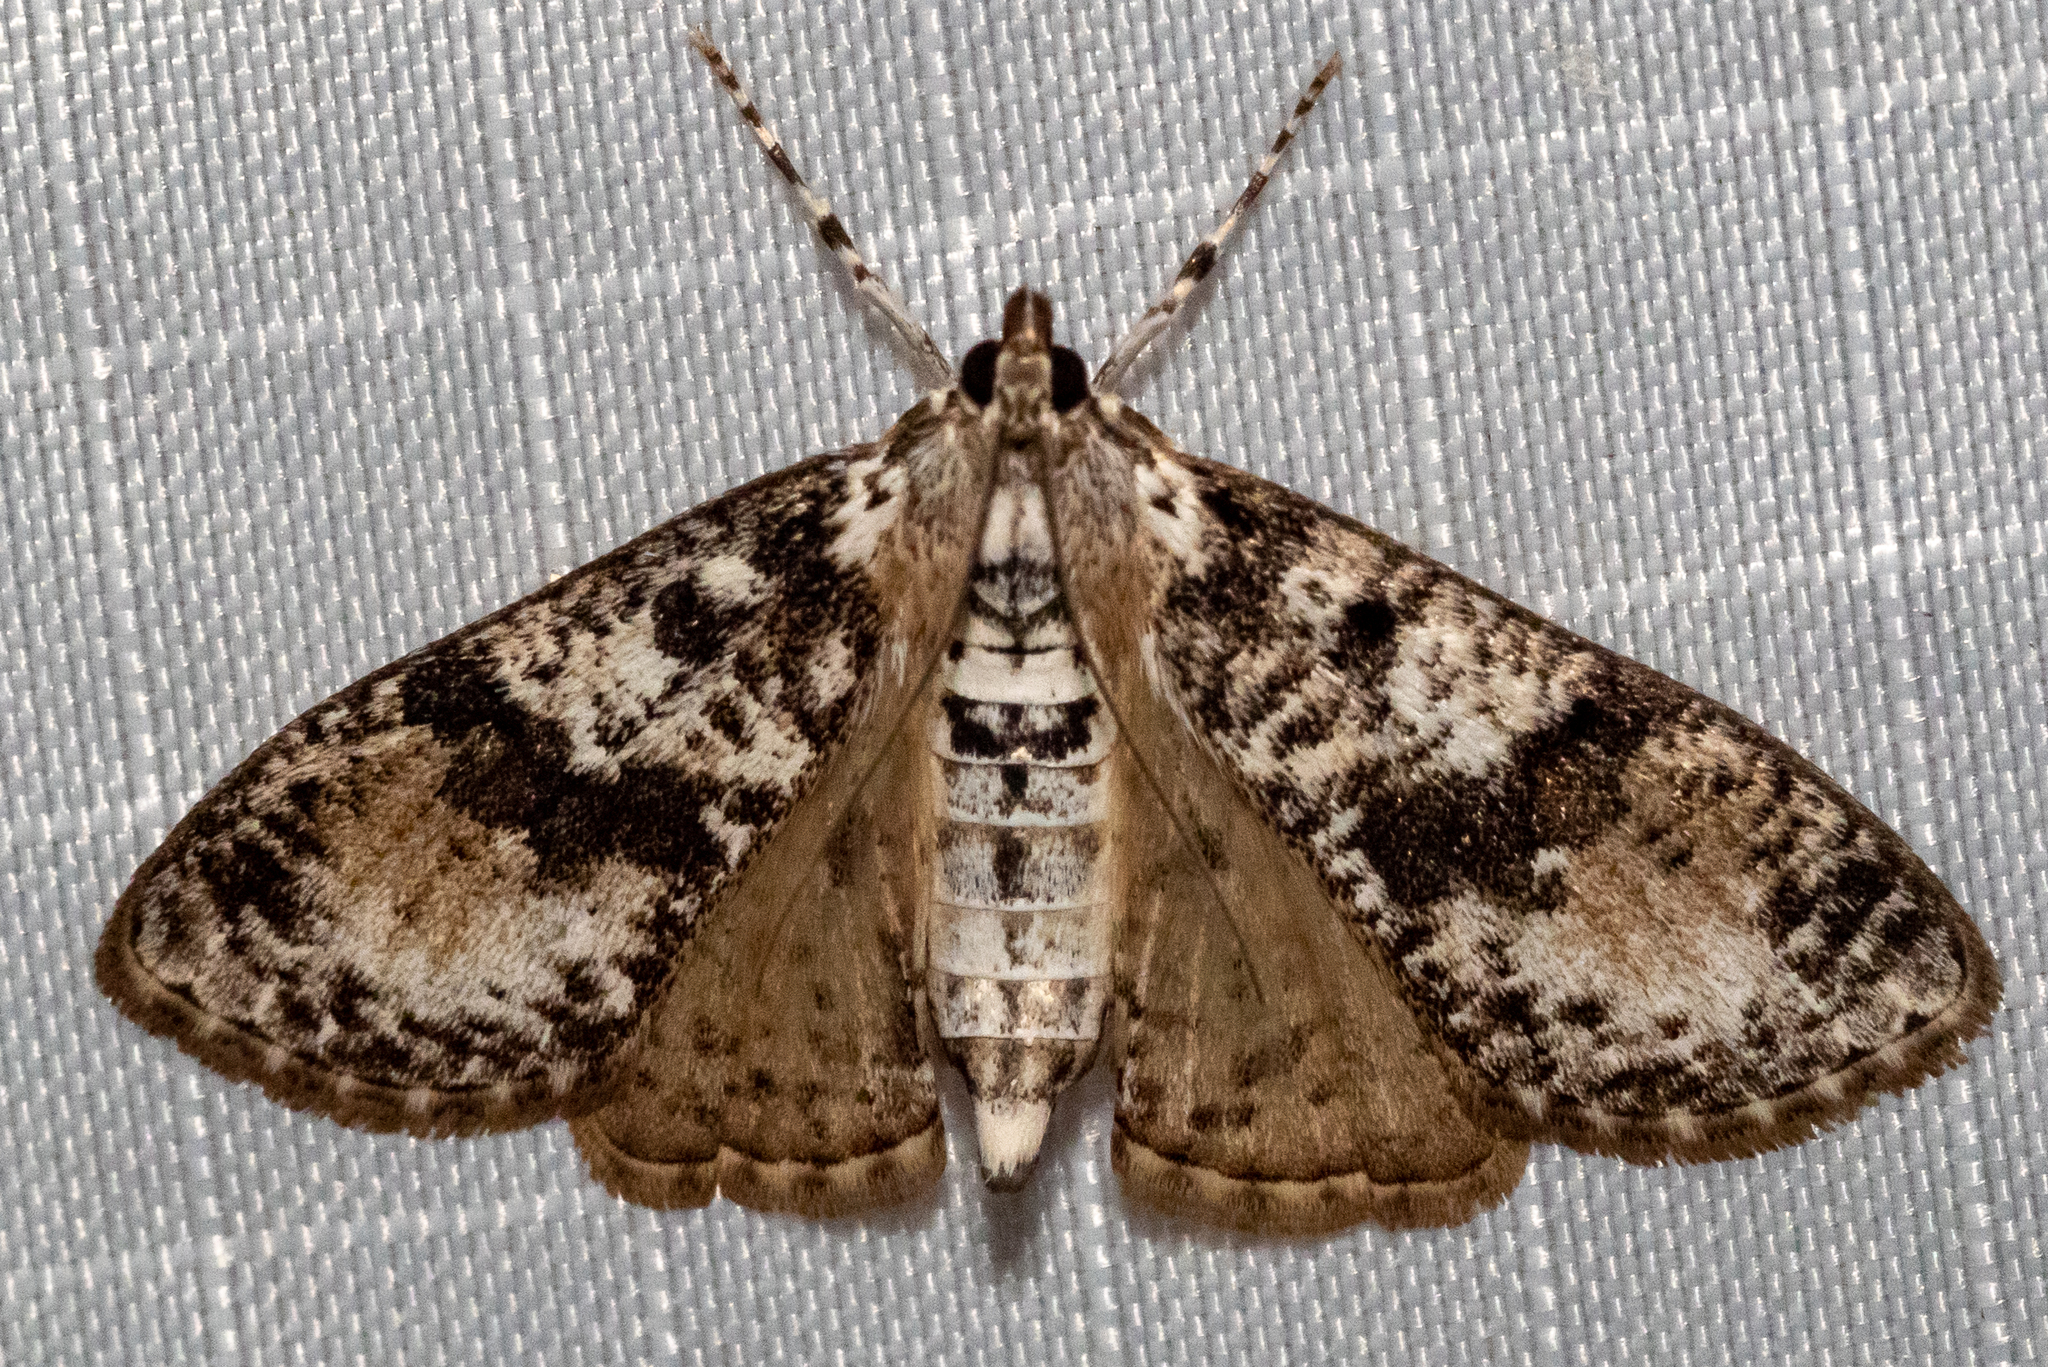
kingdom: Animalia
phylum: Arthropoda
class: Insecta
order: Lepidoptera
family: Crambidae
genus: Palpita
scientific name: Palpita magniferalis
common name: Splendid palpita moth
